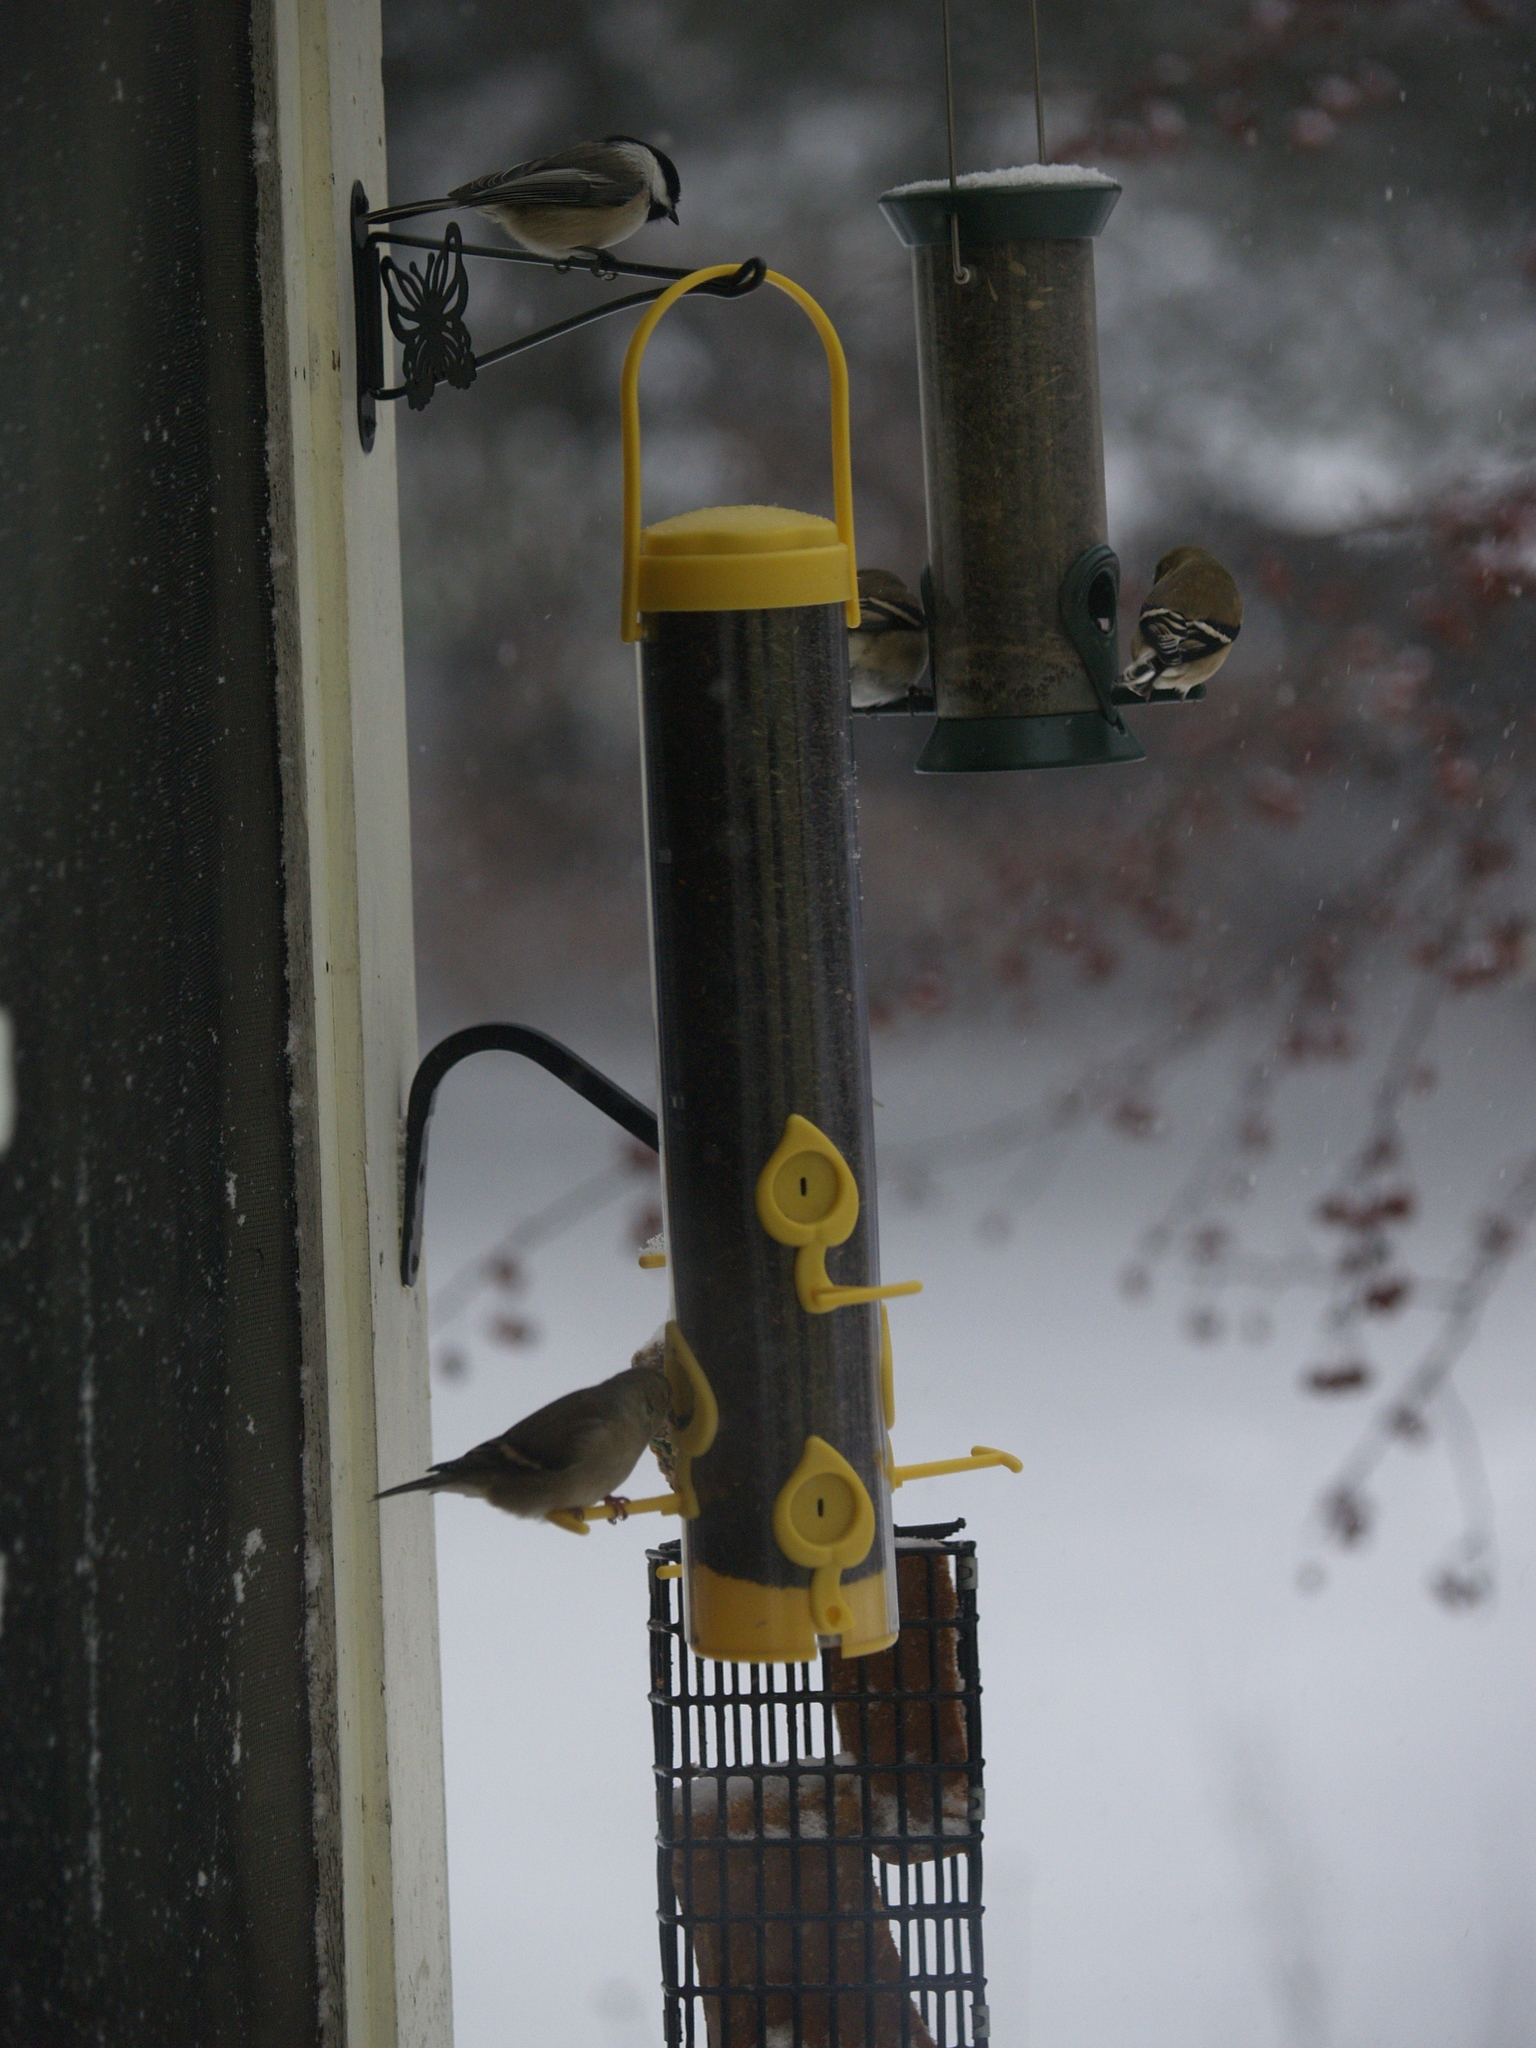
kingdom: Animalia
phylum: Chordata
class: Aves
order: Passeriformes
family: Fringillidae
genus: Spinus
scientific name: Spinus tristis
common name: American goldfinch
